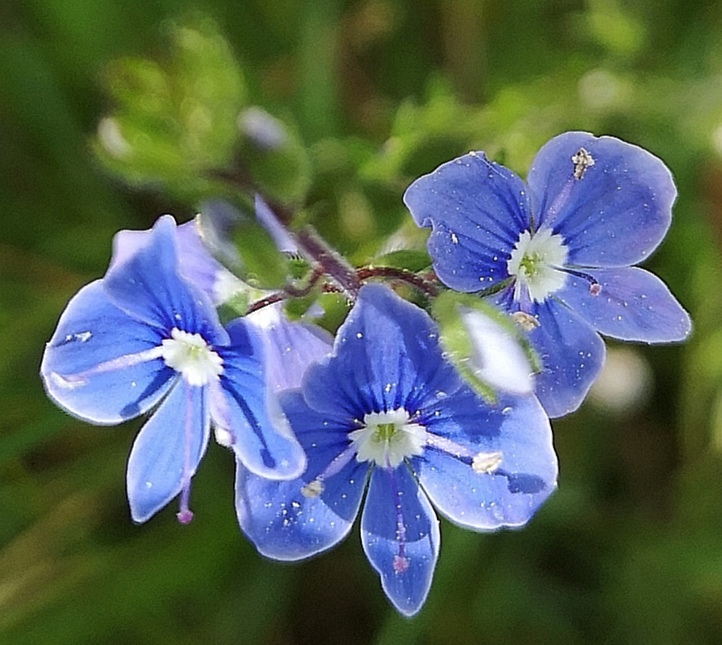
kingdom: Plantae
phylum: Tracheophyta
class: Magnoliopsida
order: Lamiales
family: Plantaginaceae
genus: Veronica
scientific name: Veronica chamaedrys
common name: Germander speedwell
